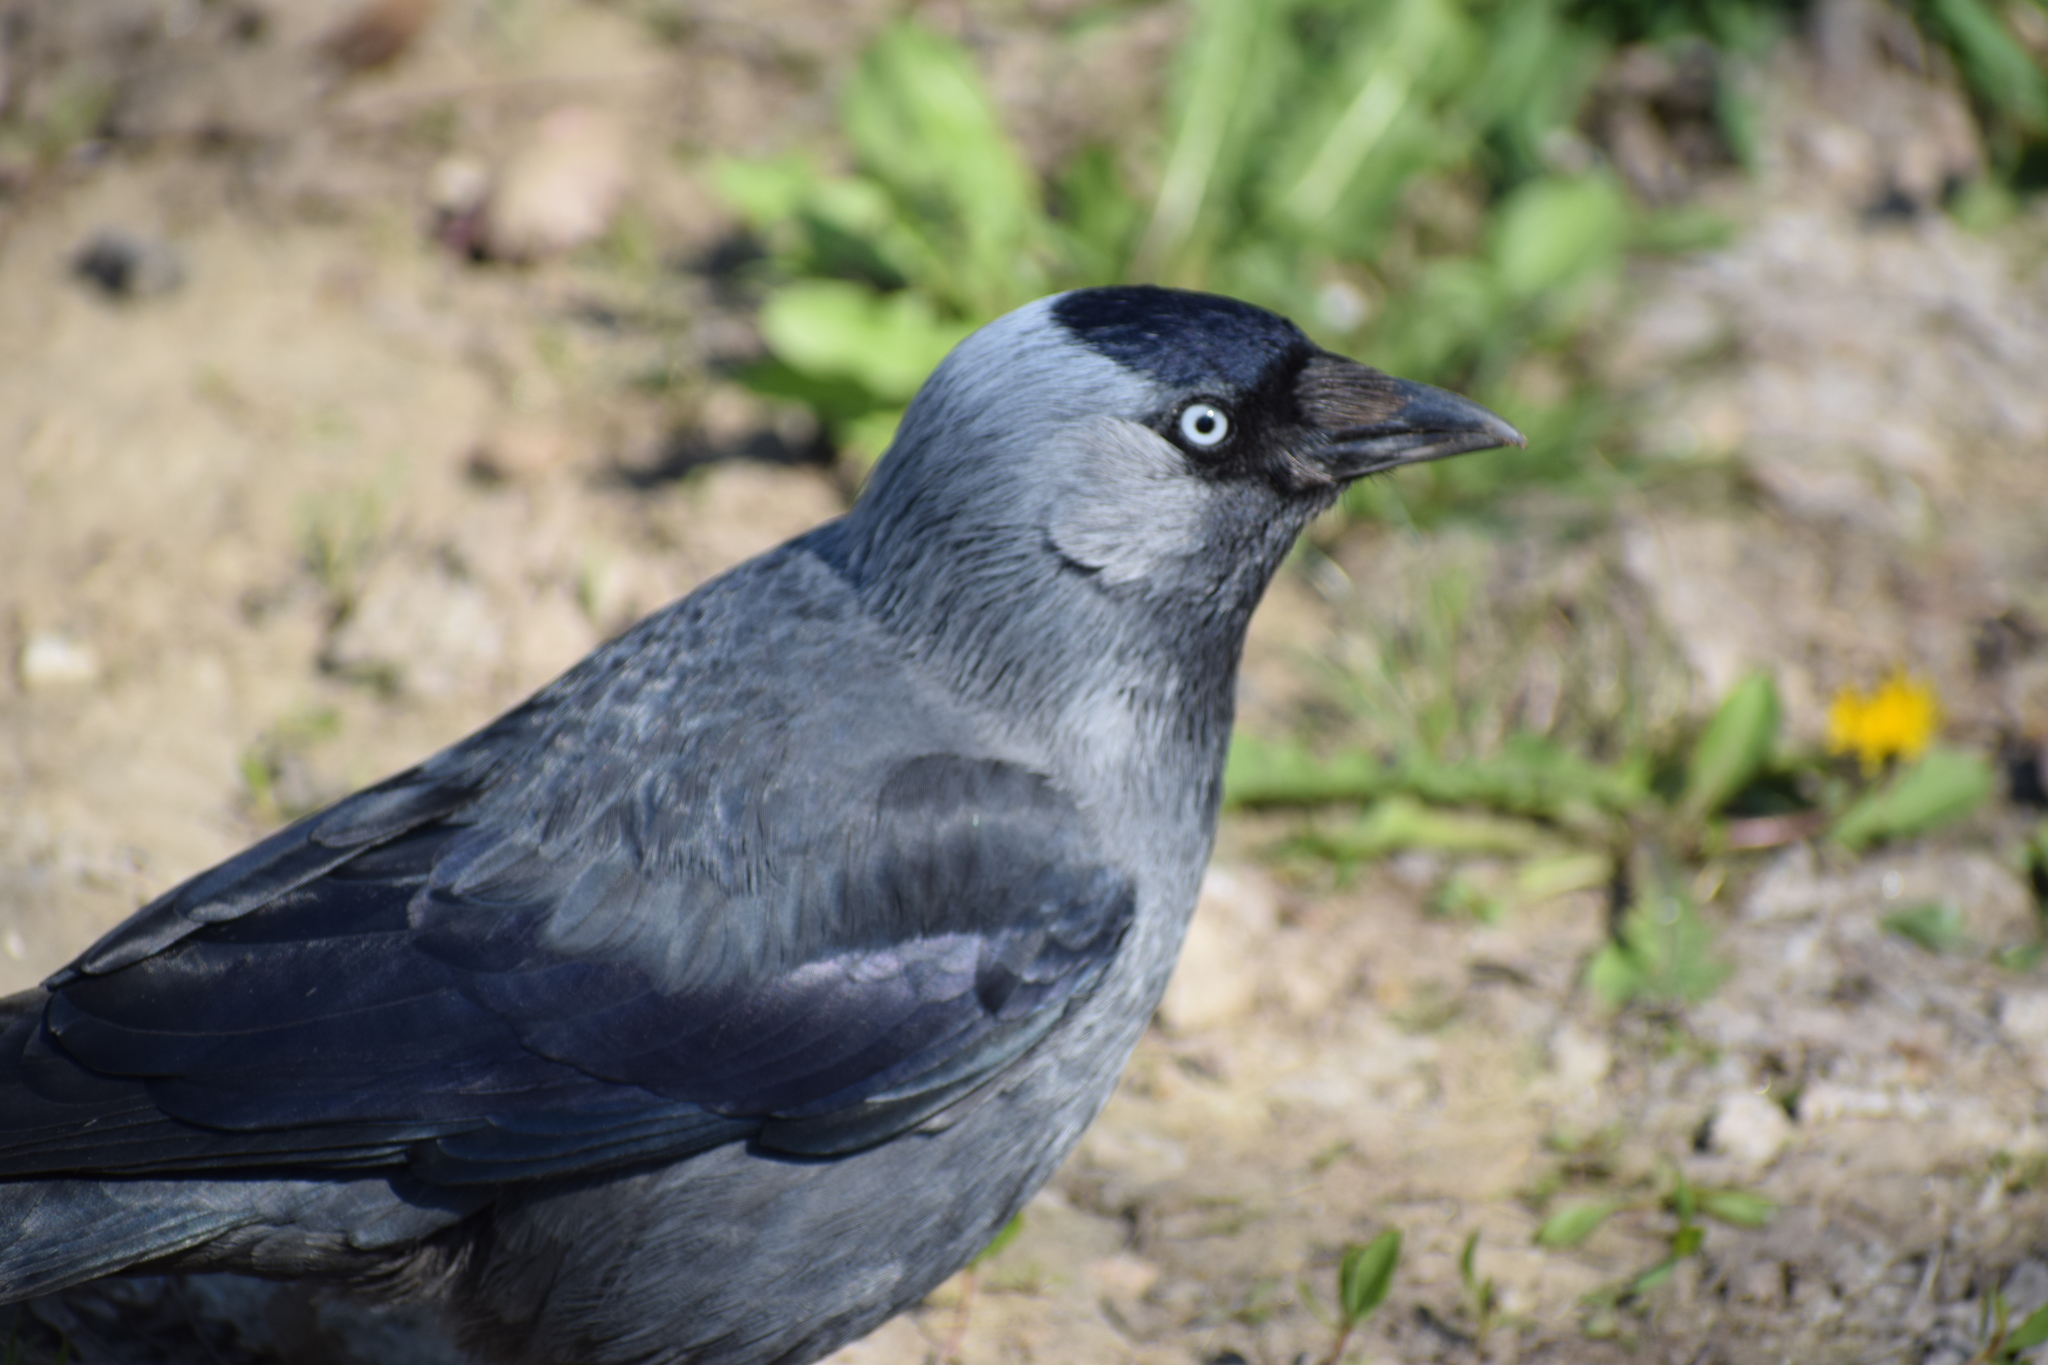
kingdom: Animalia
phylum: Chordata
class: Aves
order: Passeriformes
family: Corvidae
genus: Coloeus
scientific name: Coloeus monedula
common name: Western jackdaw
